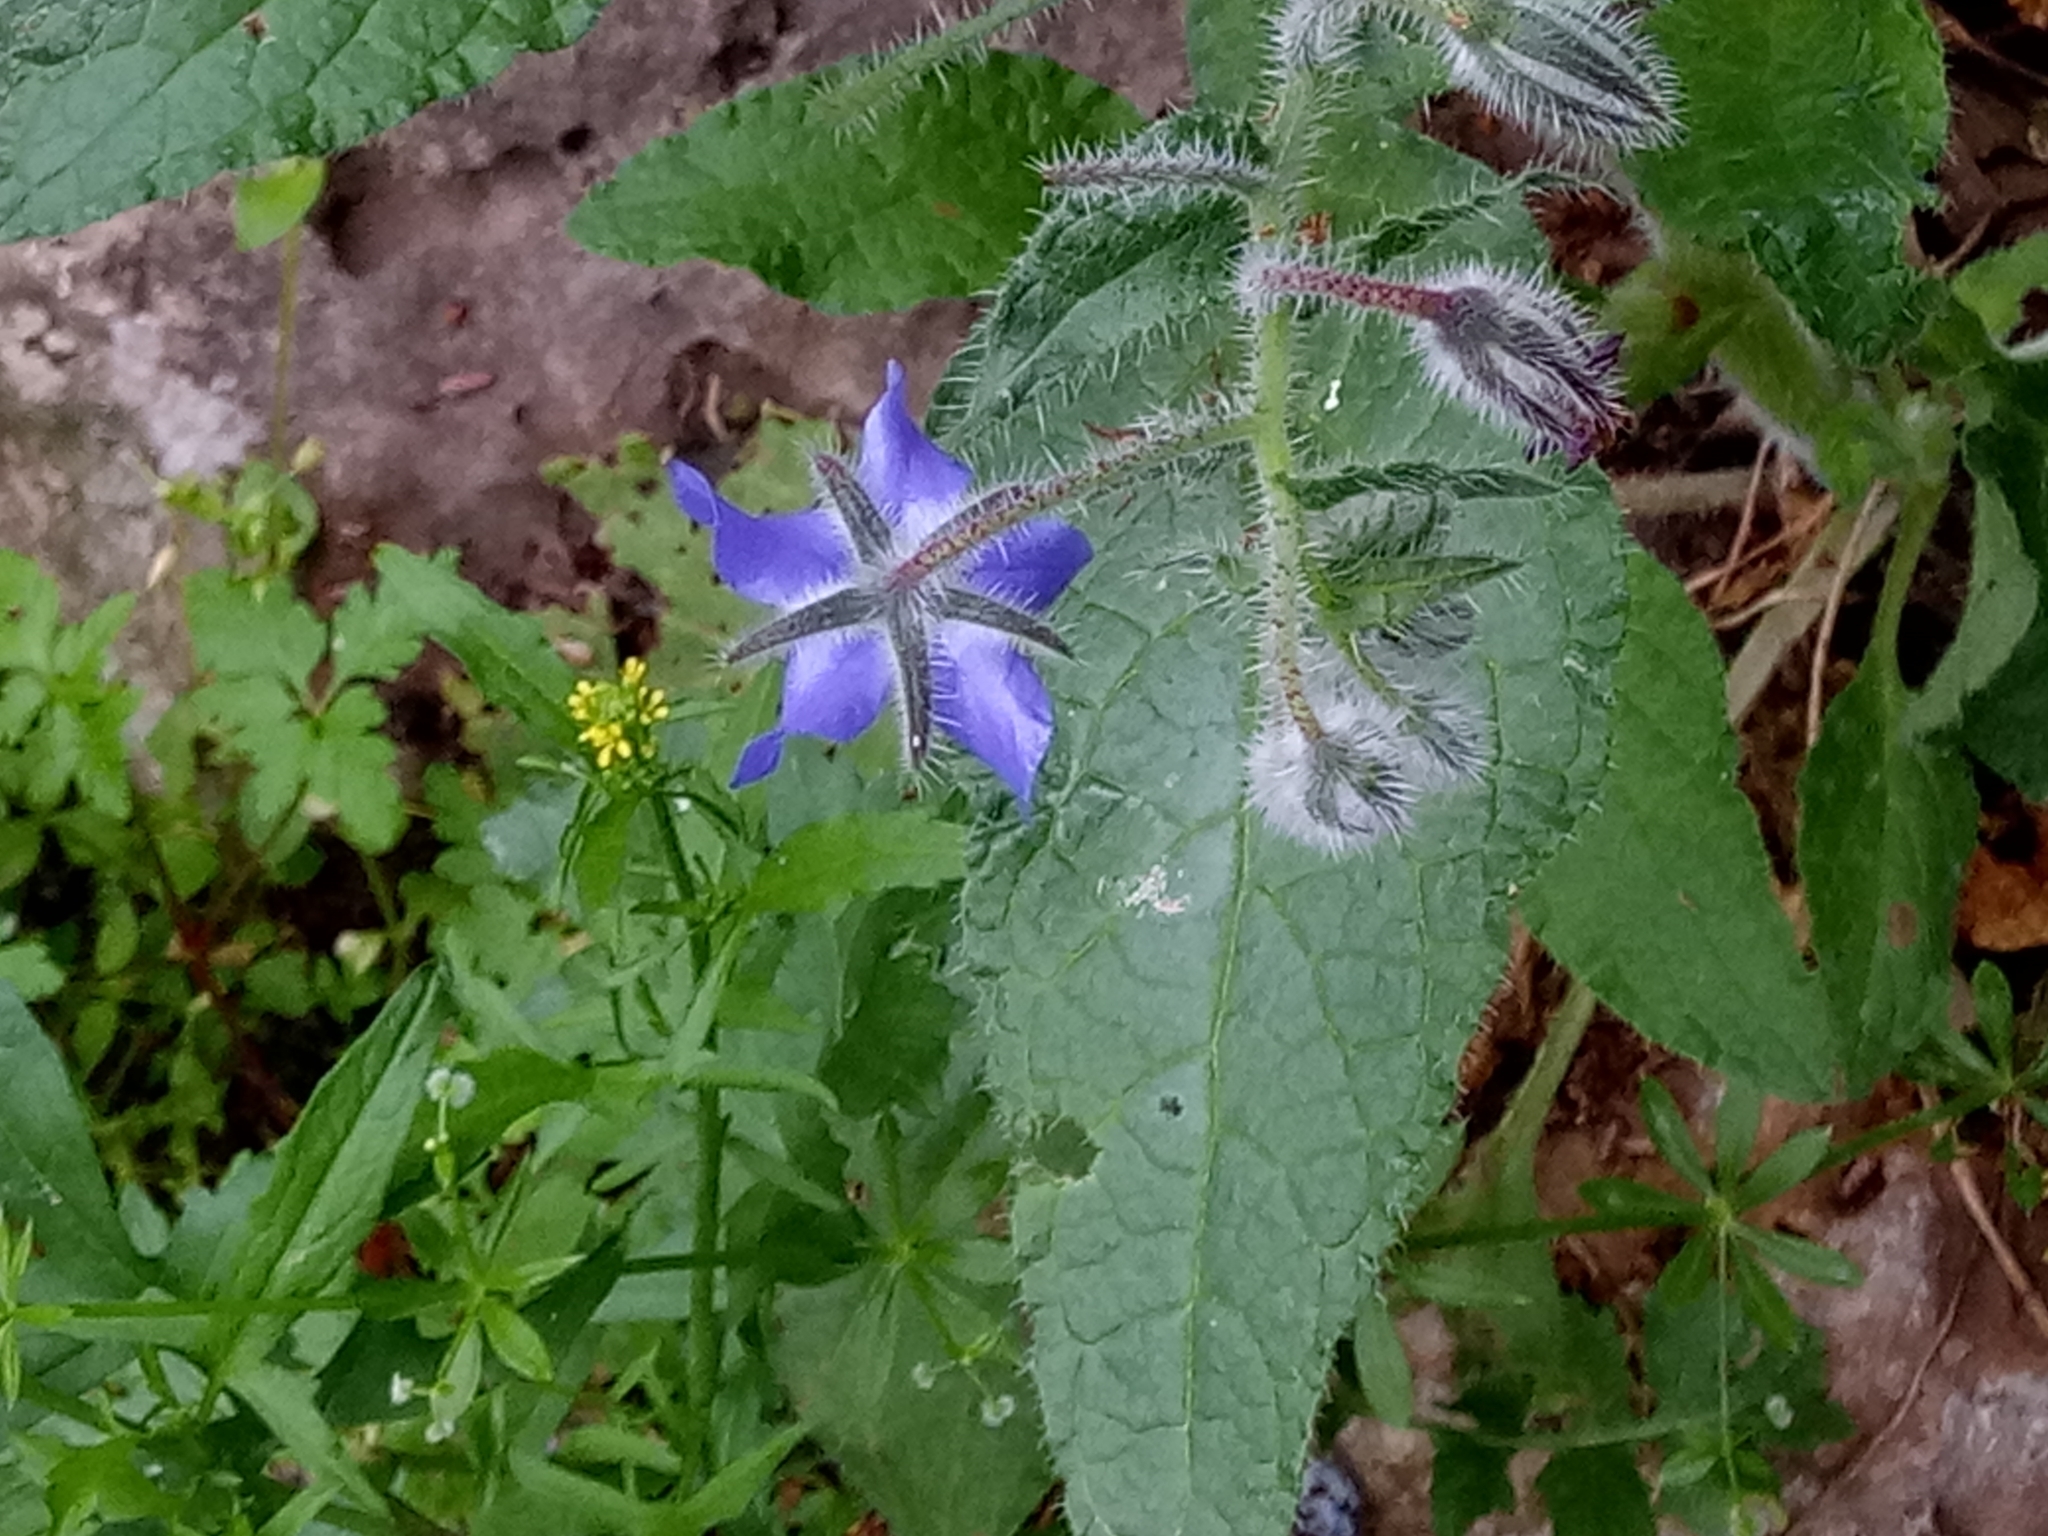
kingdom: Plantae
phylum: Tracheophyta
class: Magnoliopsida
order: Boraginales
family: Boraginaceae
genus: Borago
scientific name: Borago officinalis
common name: Borage
